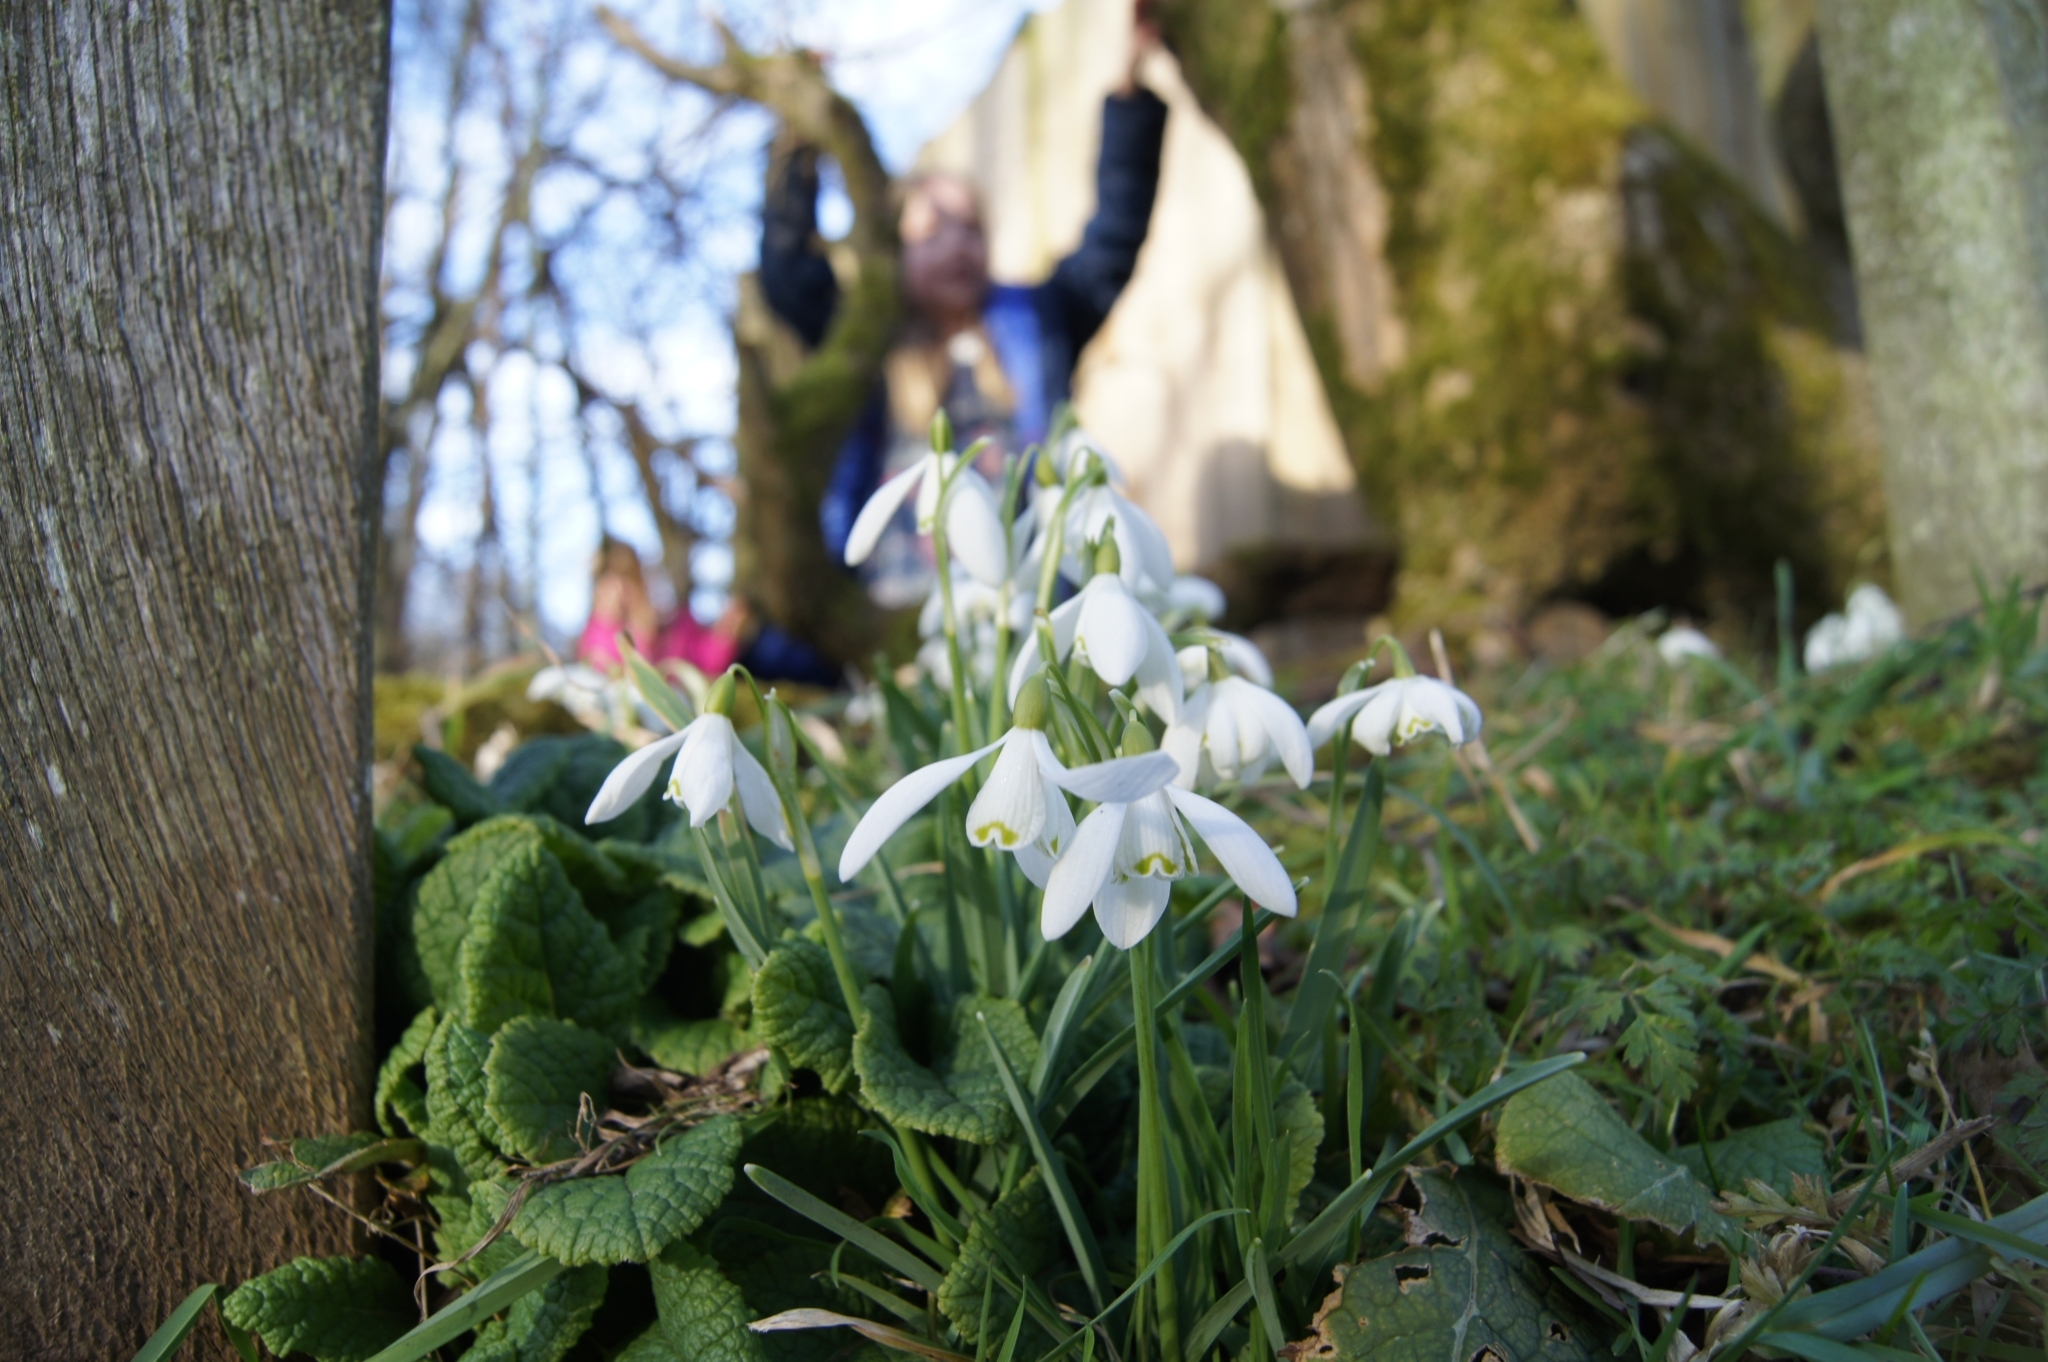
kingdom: Plantae
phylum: Tracheophyta
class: Liliopsida
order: Asparagales
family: Amaryllidaceae
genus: Galanthus
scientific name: Galanthus nivalis
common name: Snowdrop
